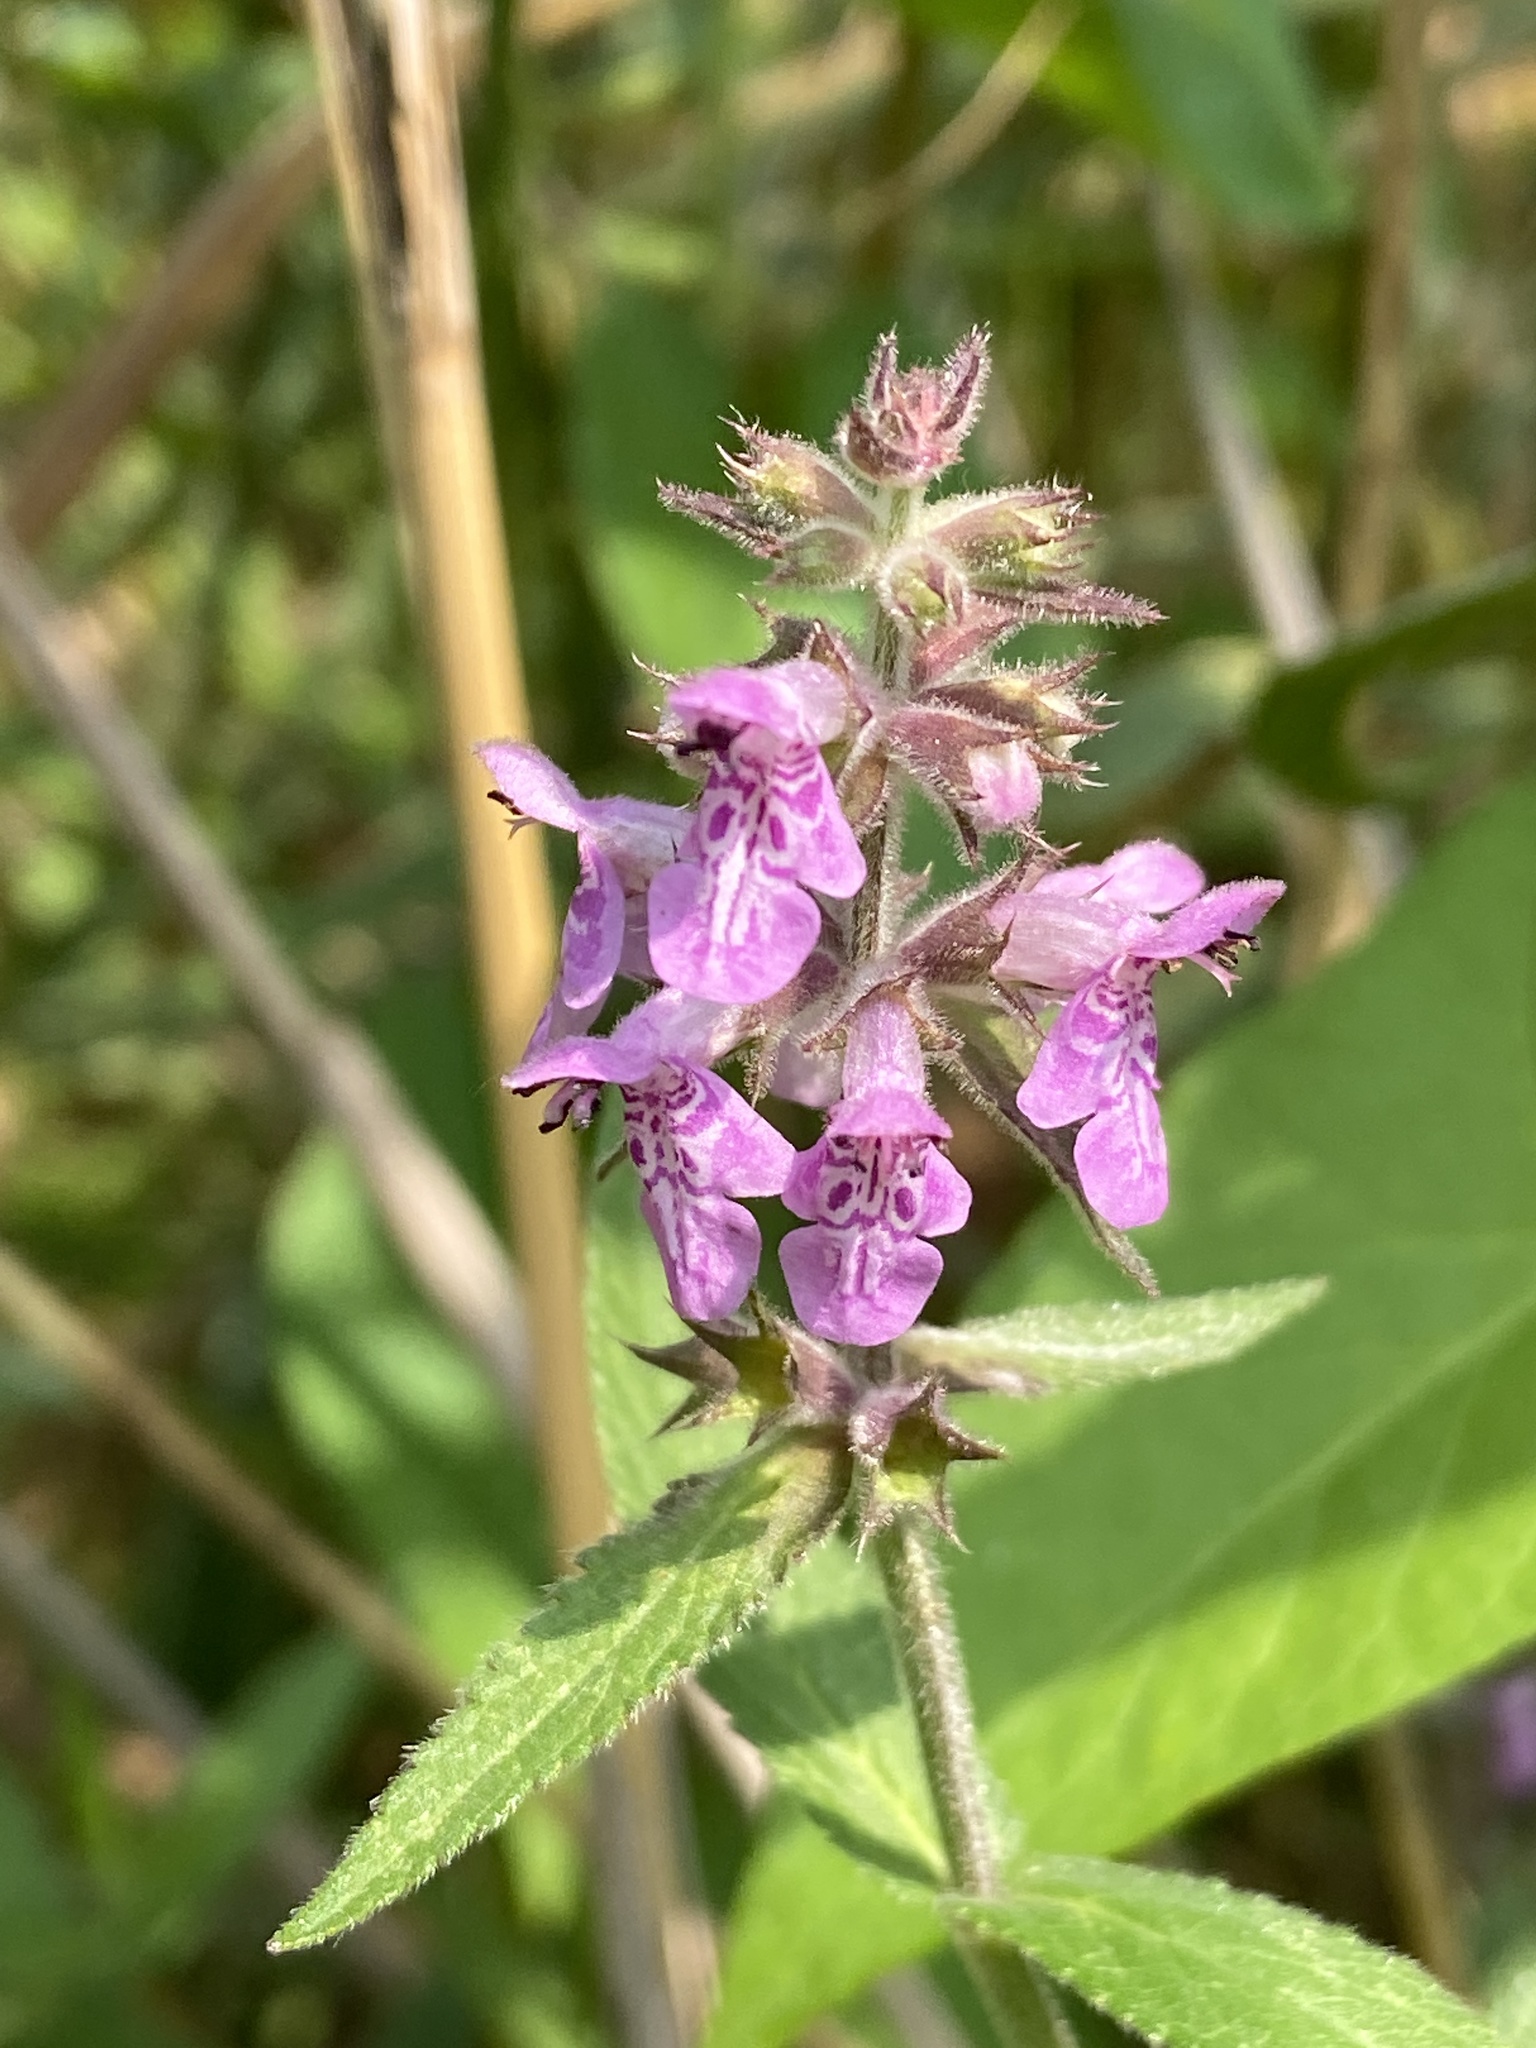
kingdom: Plantae
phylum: Tracheophyta
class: Magnoliopsida
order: Lamiales
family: Lamiaceae
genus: Stachys
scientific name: Stachys palustris
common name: Marsh woundwort
